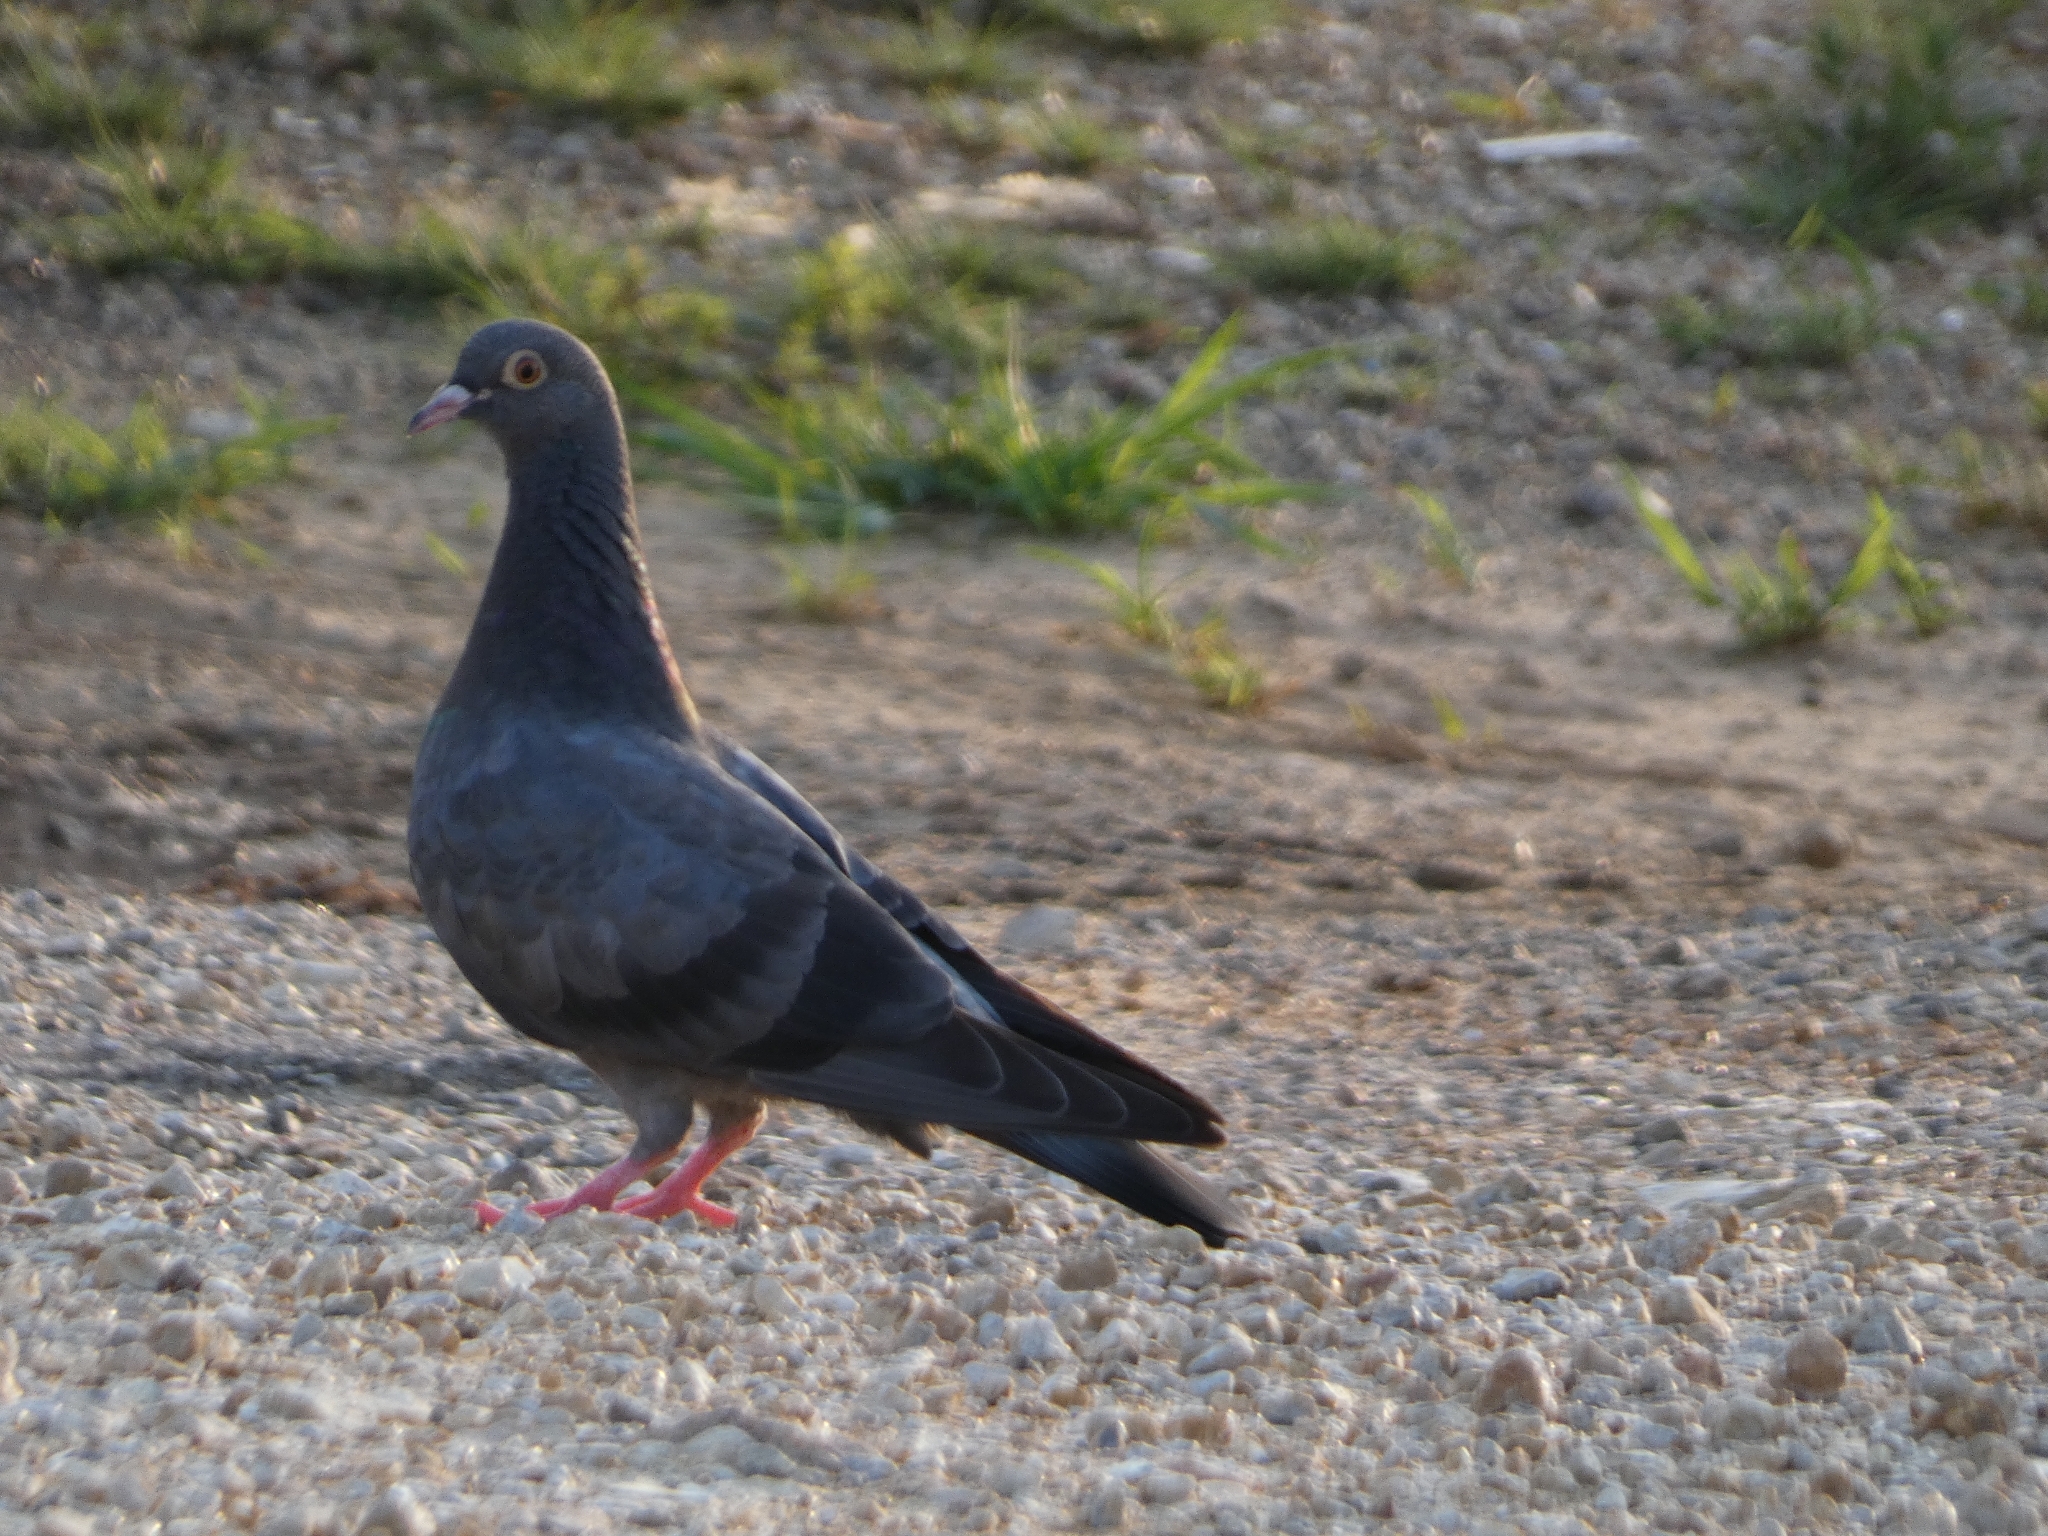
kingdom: Animalia
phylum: Chordata
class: Aves
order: Columbiformes
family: Columbidae
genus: Columba
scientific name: Columba livia
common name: Rock pigeon
